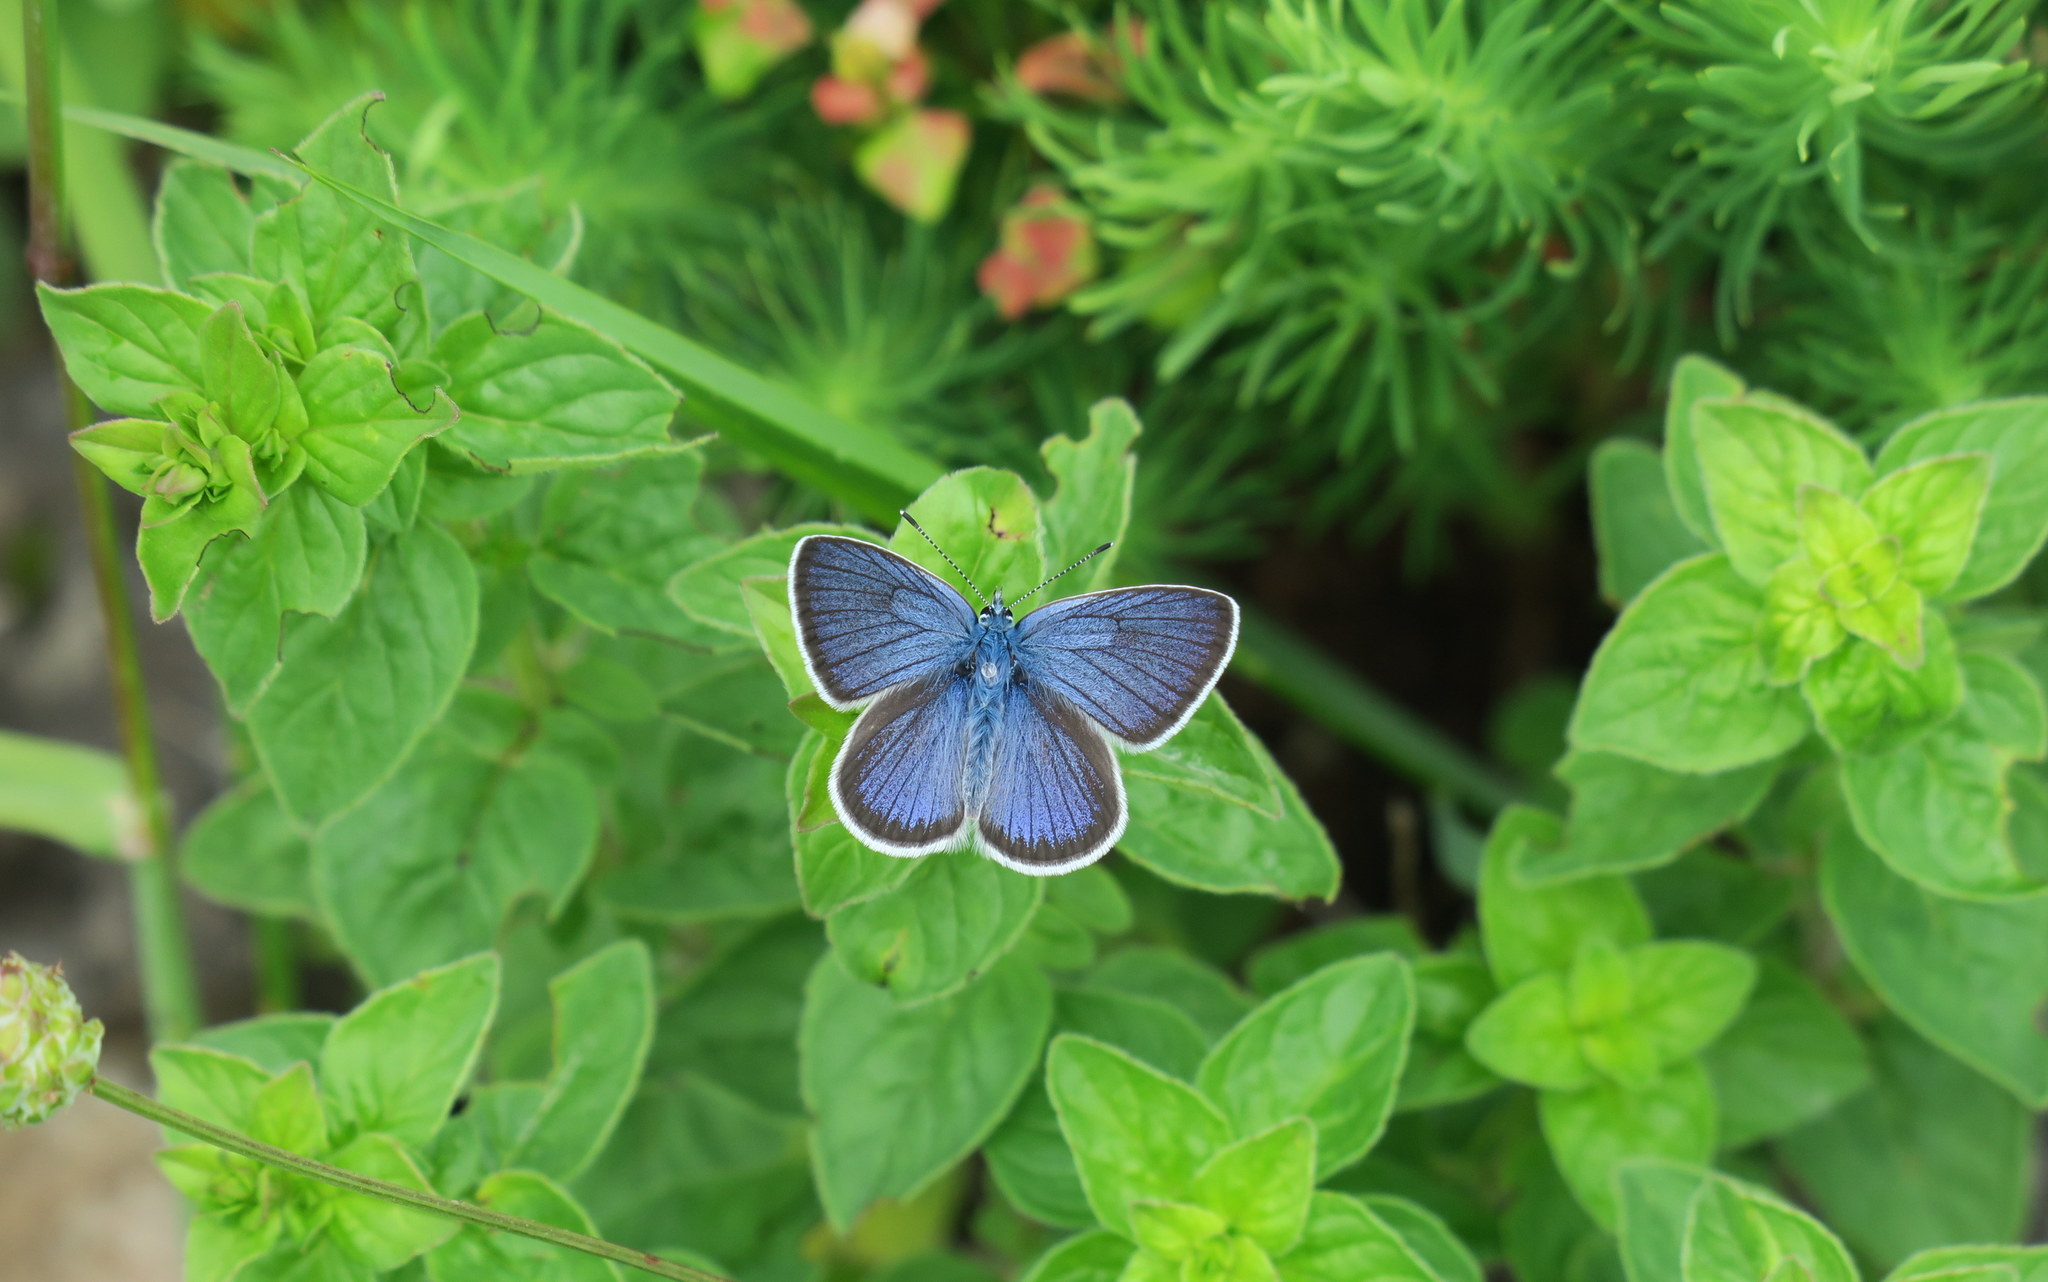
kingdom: Animalia
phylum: Arthropoda
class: Insecta
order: Lepidoptera
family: Lycaenidae
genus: Cyaniris
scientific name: Cyaniris semiargus
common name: Mazarine blue
